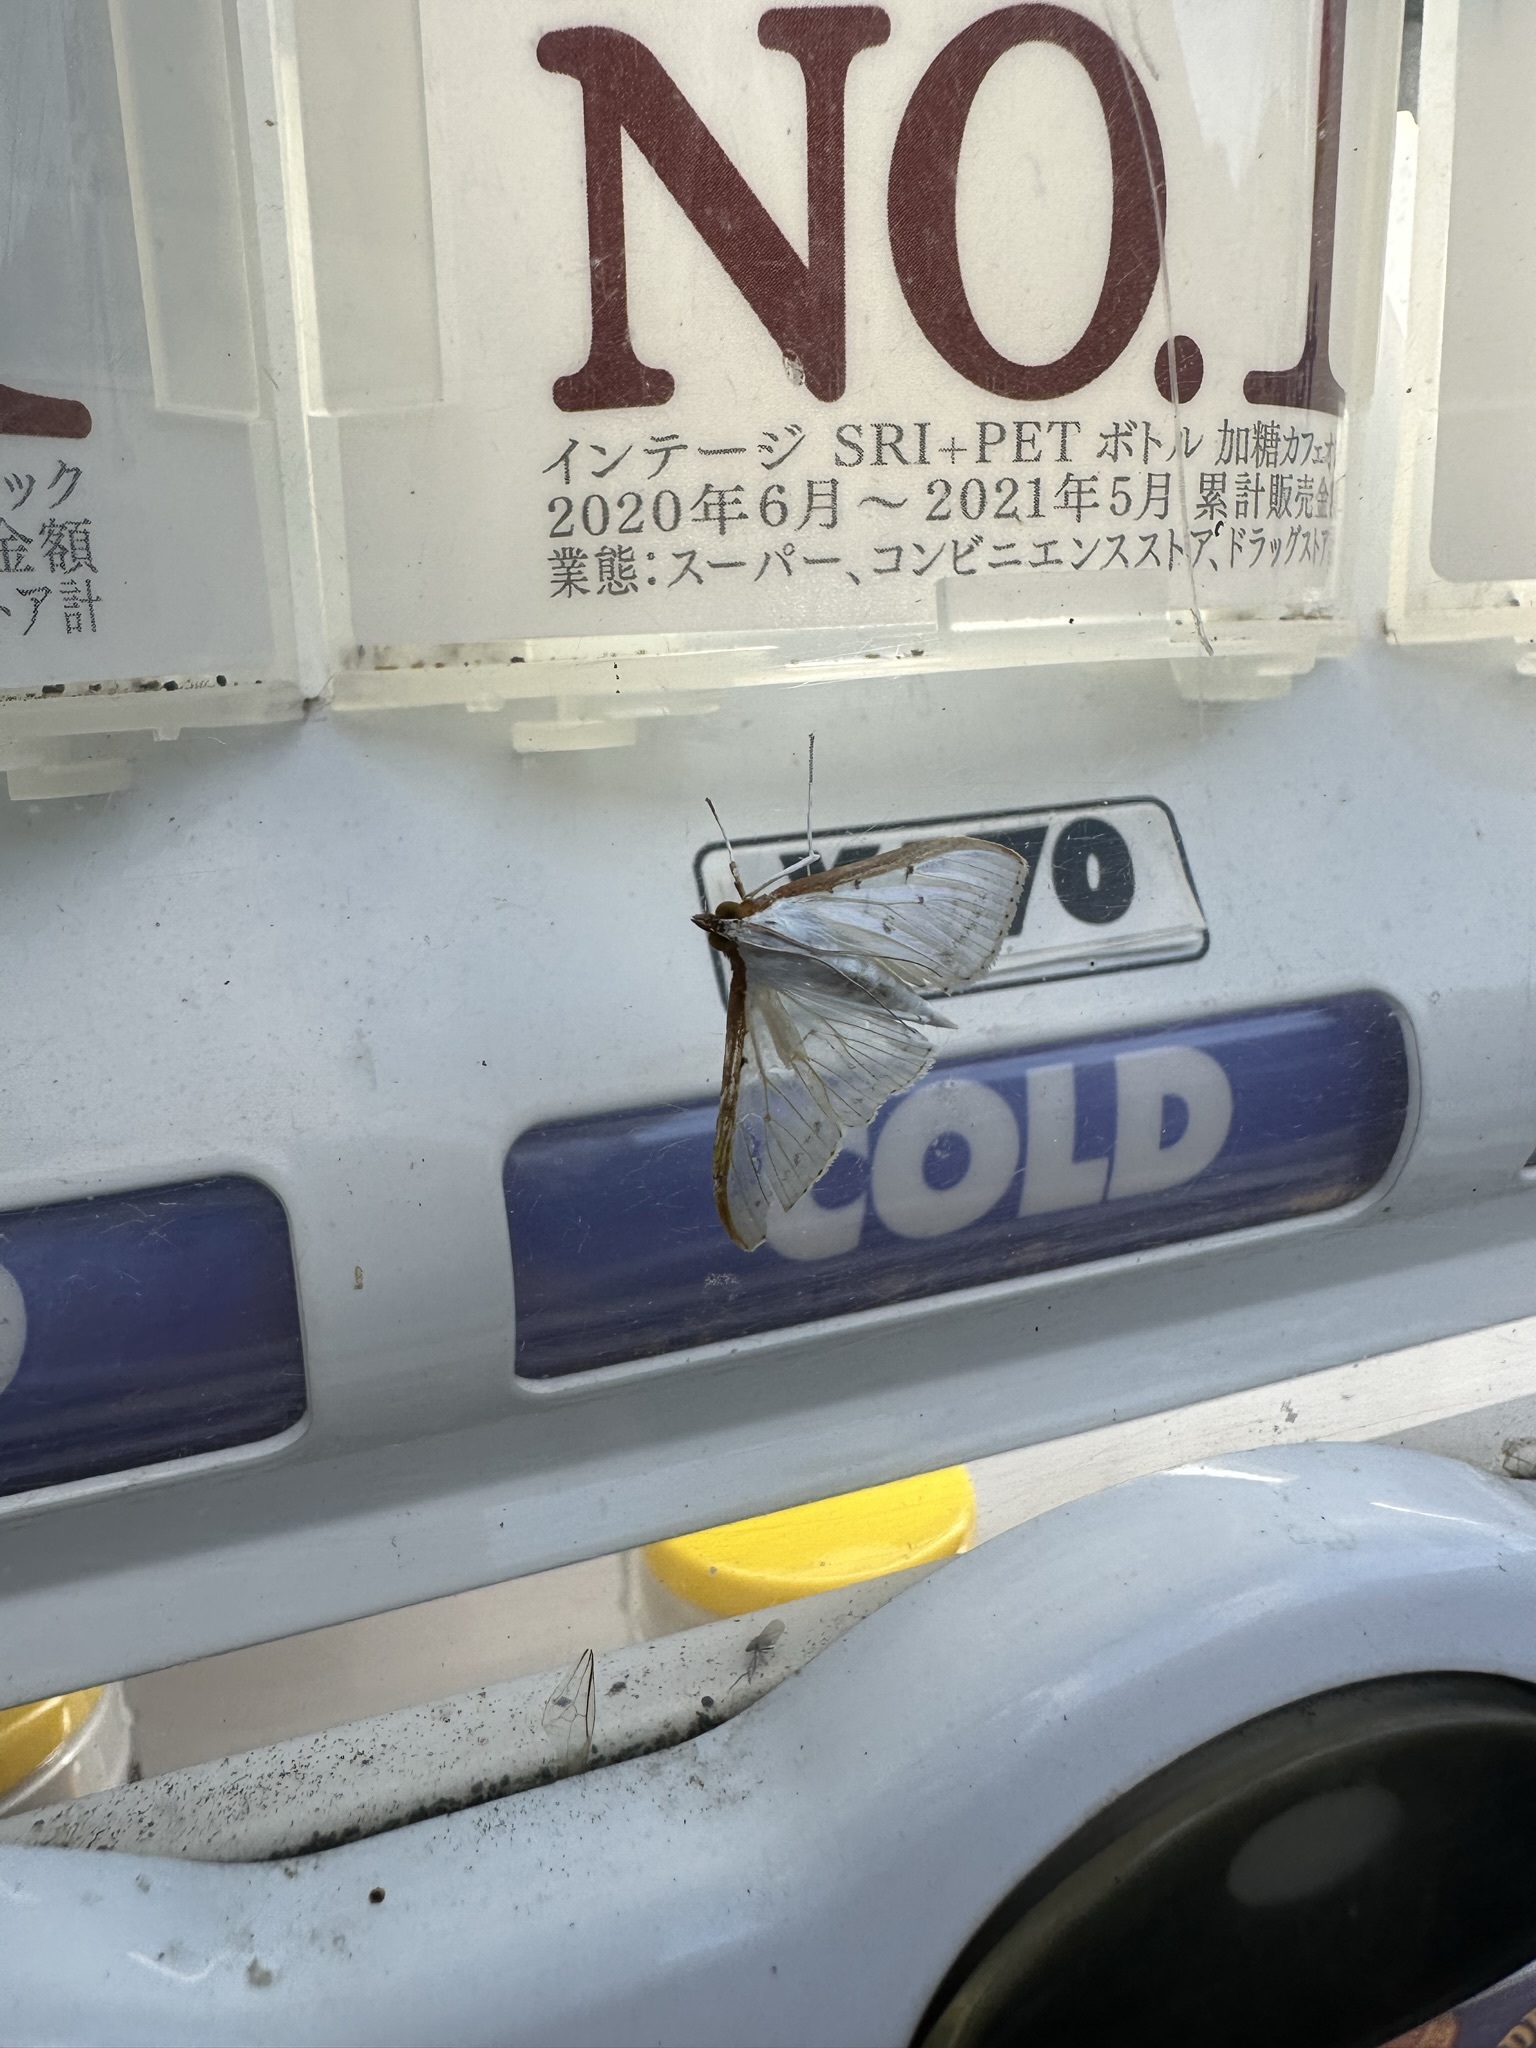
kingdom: Animalia
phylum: Arthropoda
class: Insecta
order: Lepidoptera
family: Crambidae
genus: Palpita
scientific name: Palpita nigropunctalis
